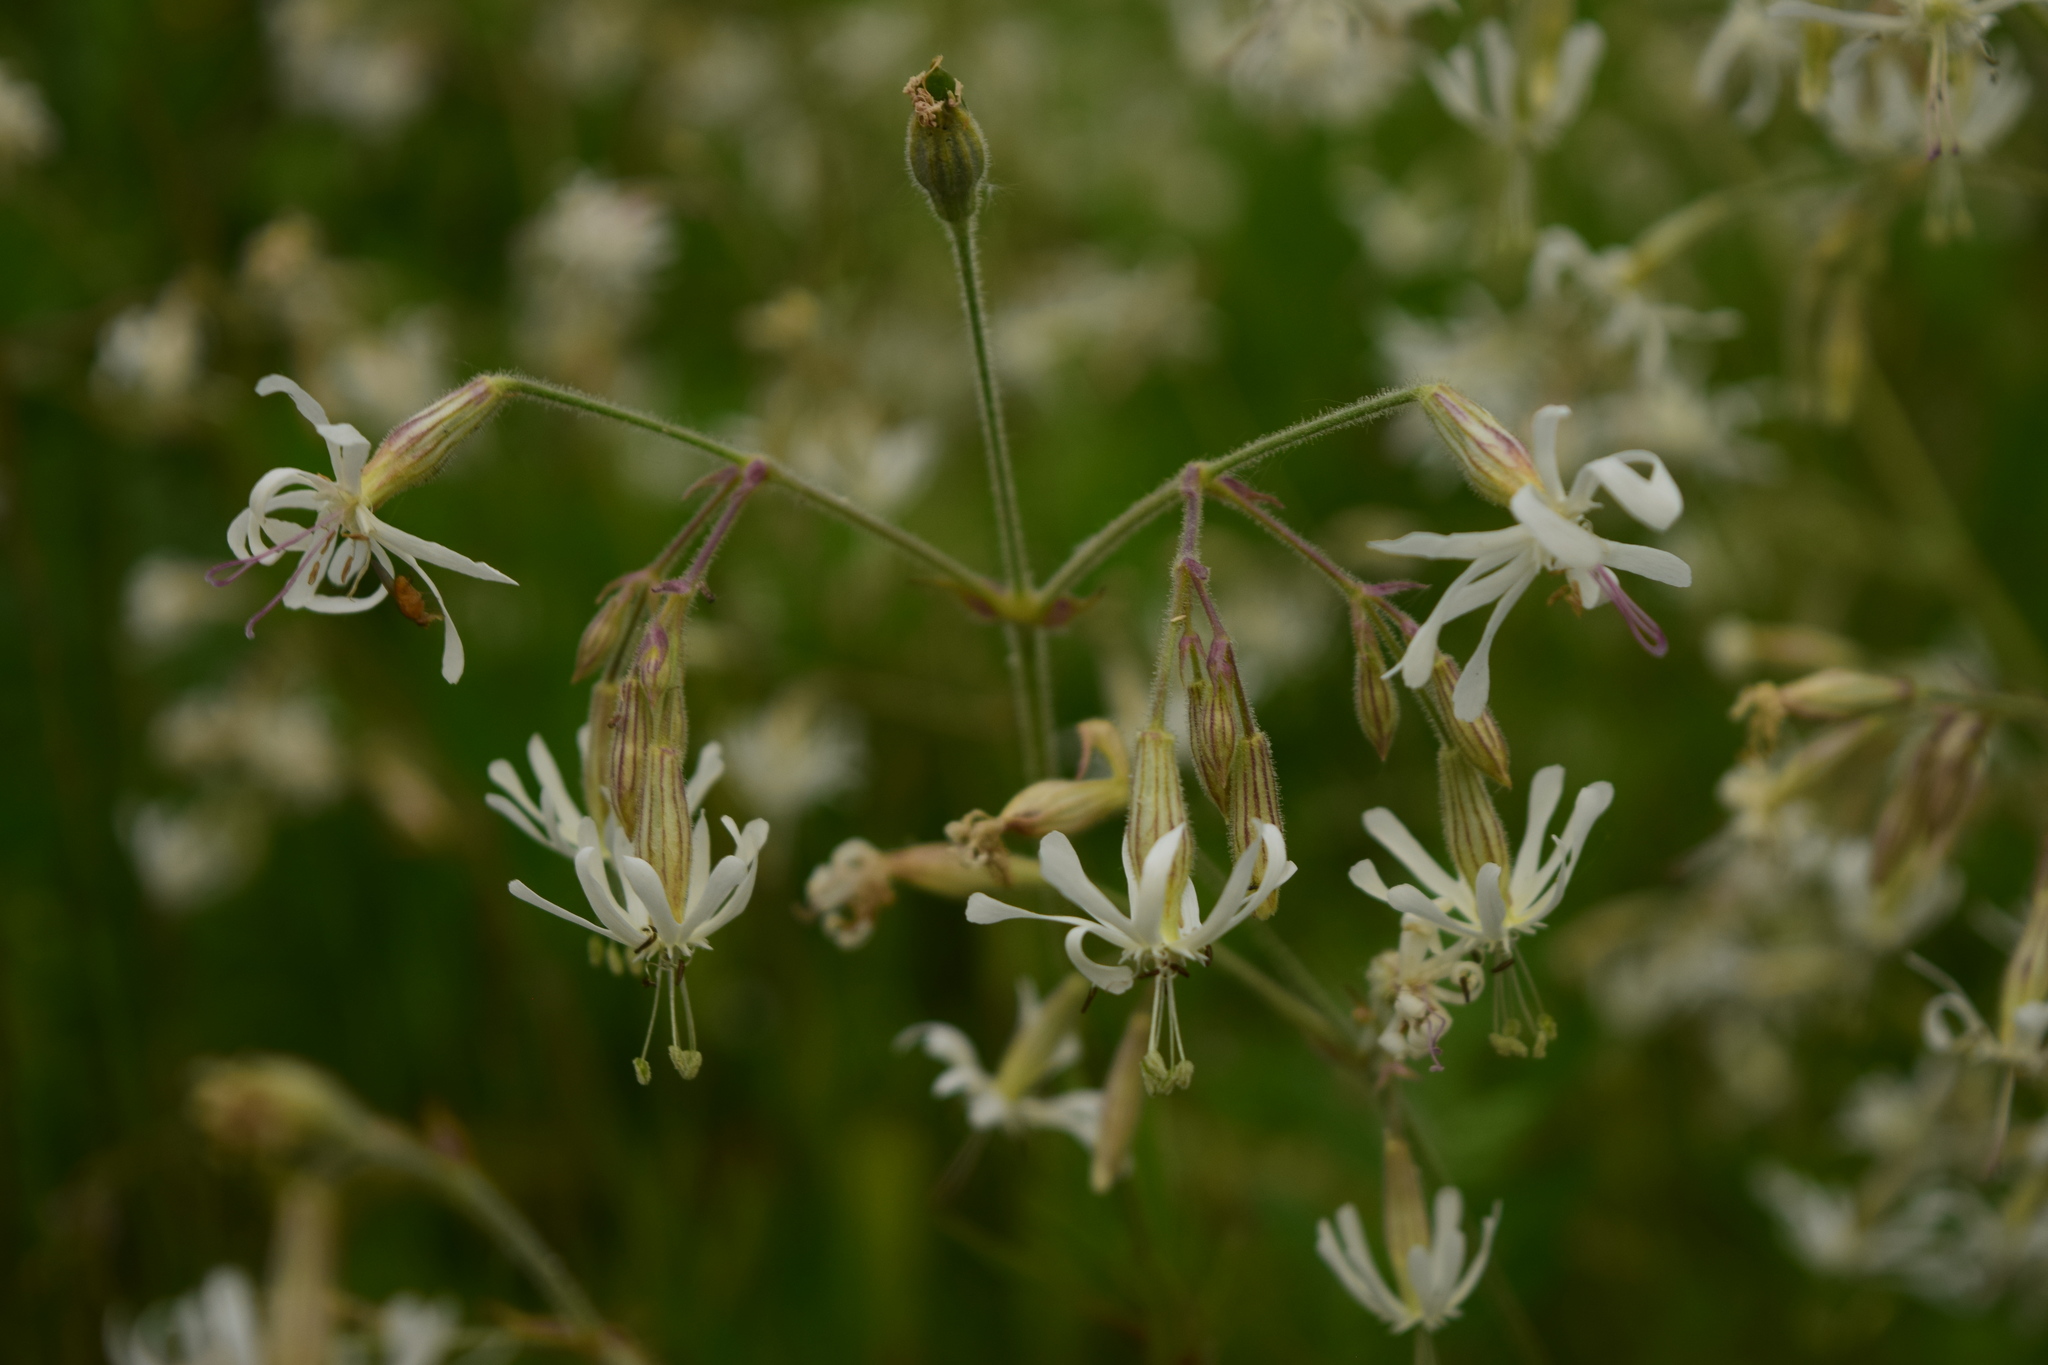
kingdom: Plantae
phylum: Tracheophyta
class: Magnoliopsida
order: Caryophyllales
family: Caryophyllaceae
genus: Silene
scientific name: Silene nutans
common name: Nottingham catchfly
